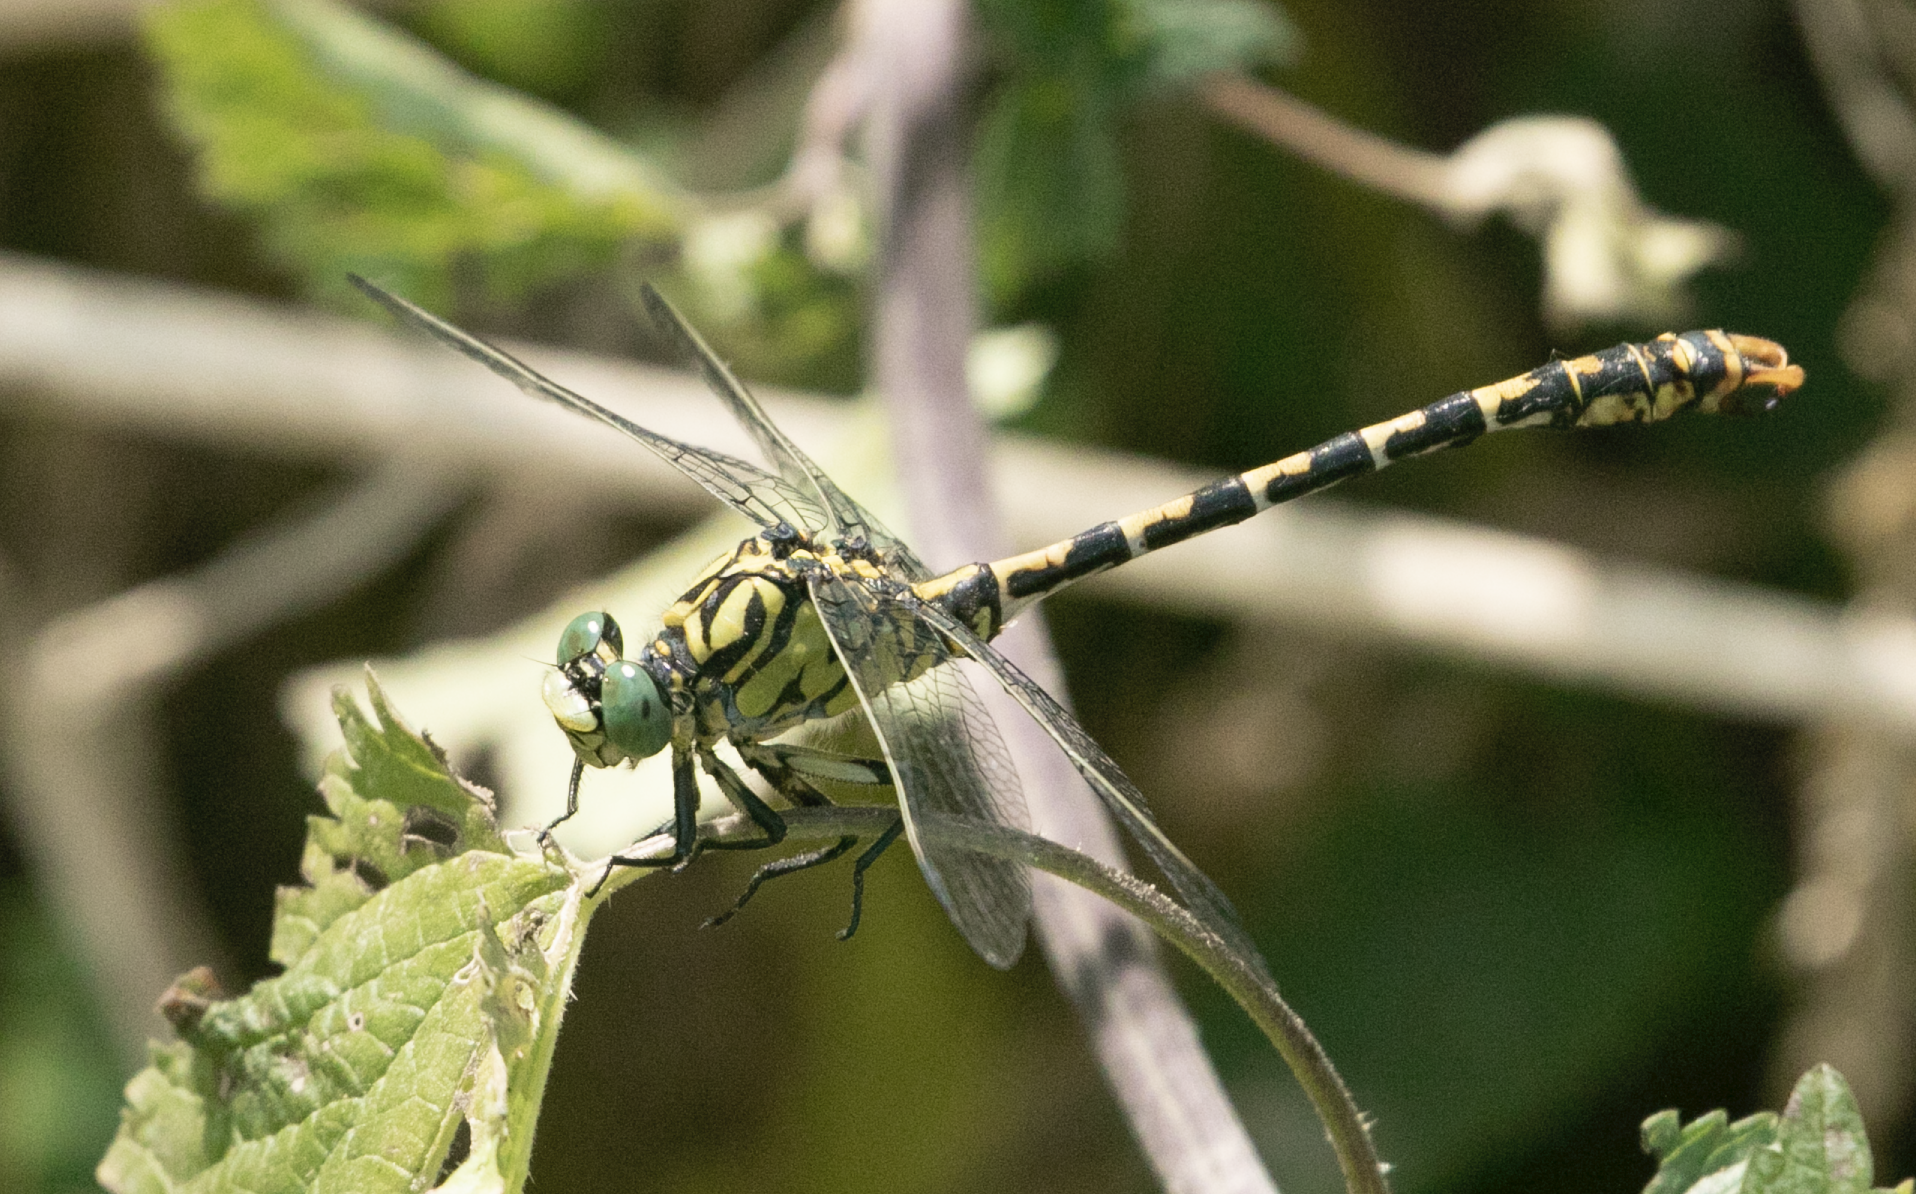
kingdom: Animalia
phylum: Arthropoda
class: Insecta
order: Odonata
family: Gomphidae
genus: Onychogomphus
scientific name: Onychogomphus forcipatus
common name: Small pincertail
